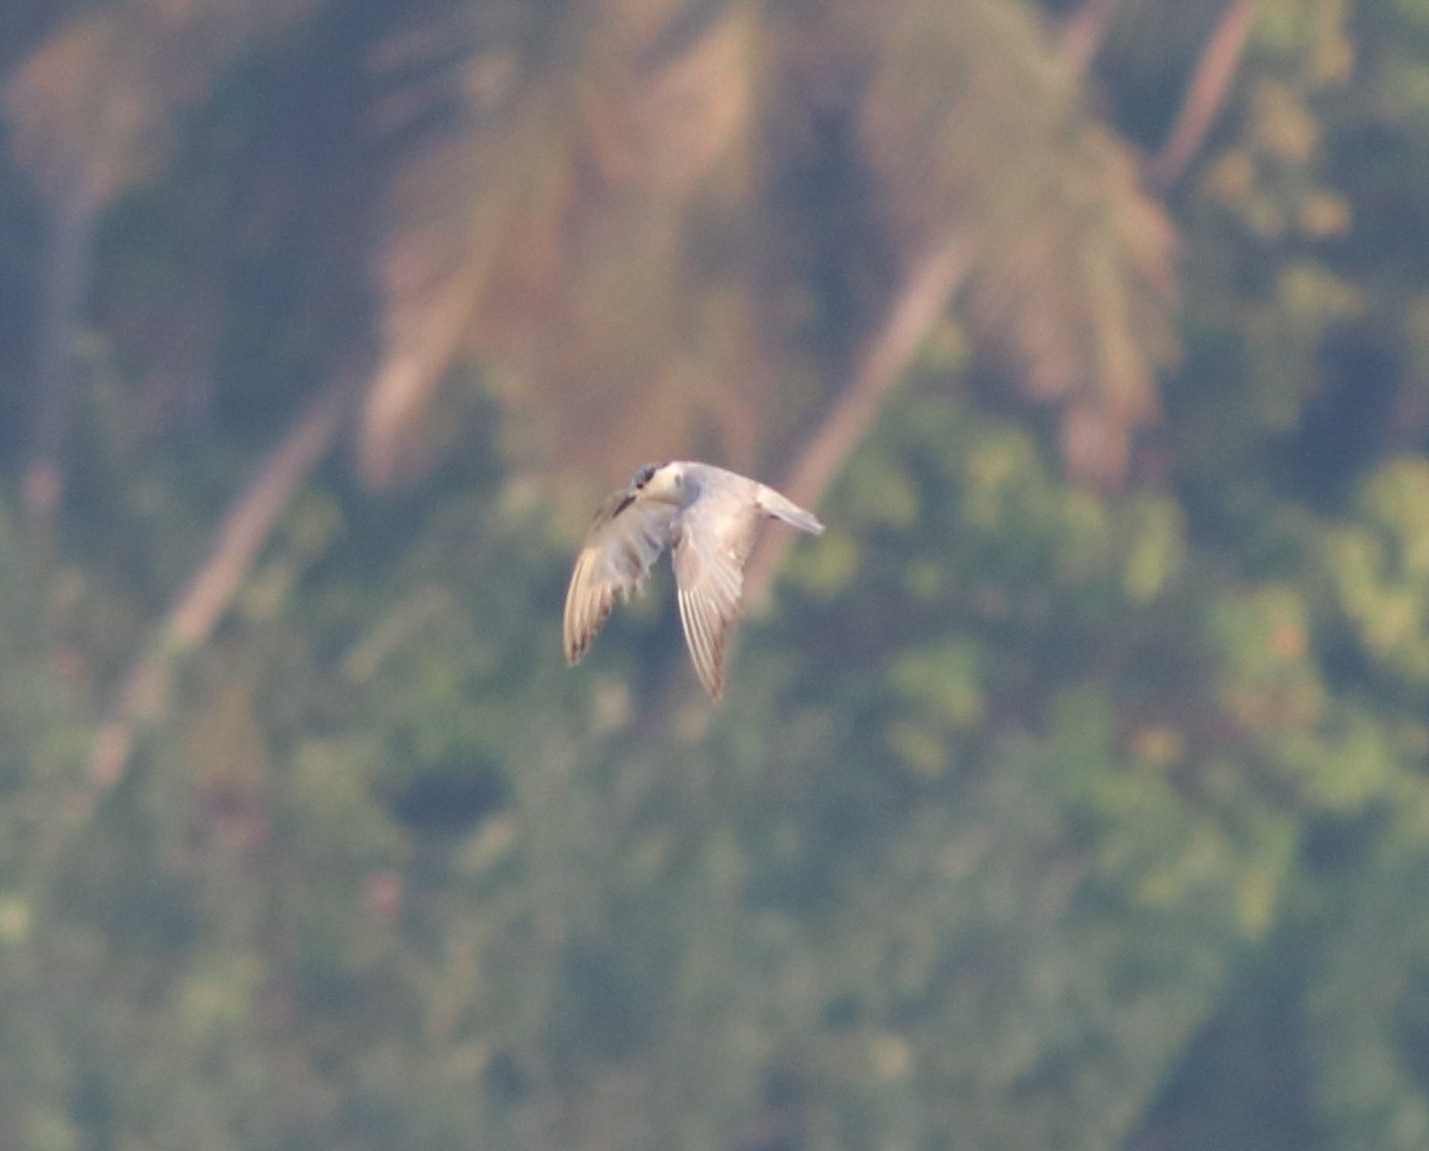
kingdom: Animalia
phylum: Chordata
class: Aves
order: Charadriiformes
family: Laridae
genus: Chlidonias
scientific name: Chlidonias hybrida
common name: Whiskered tern
